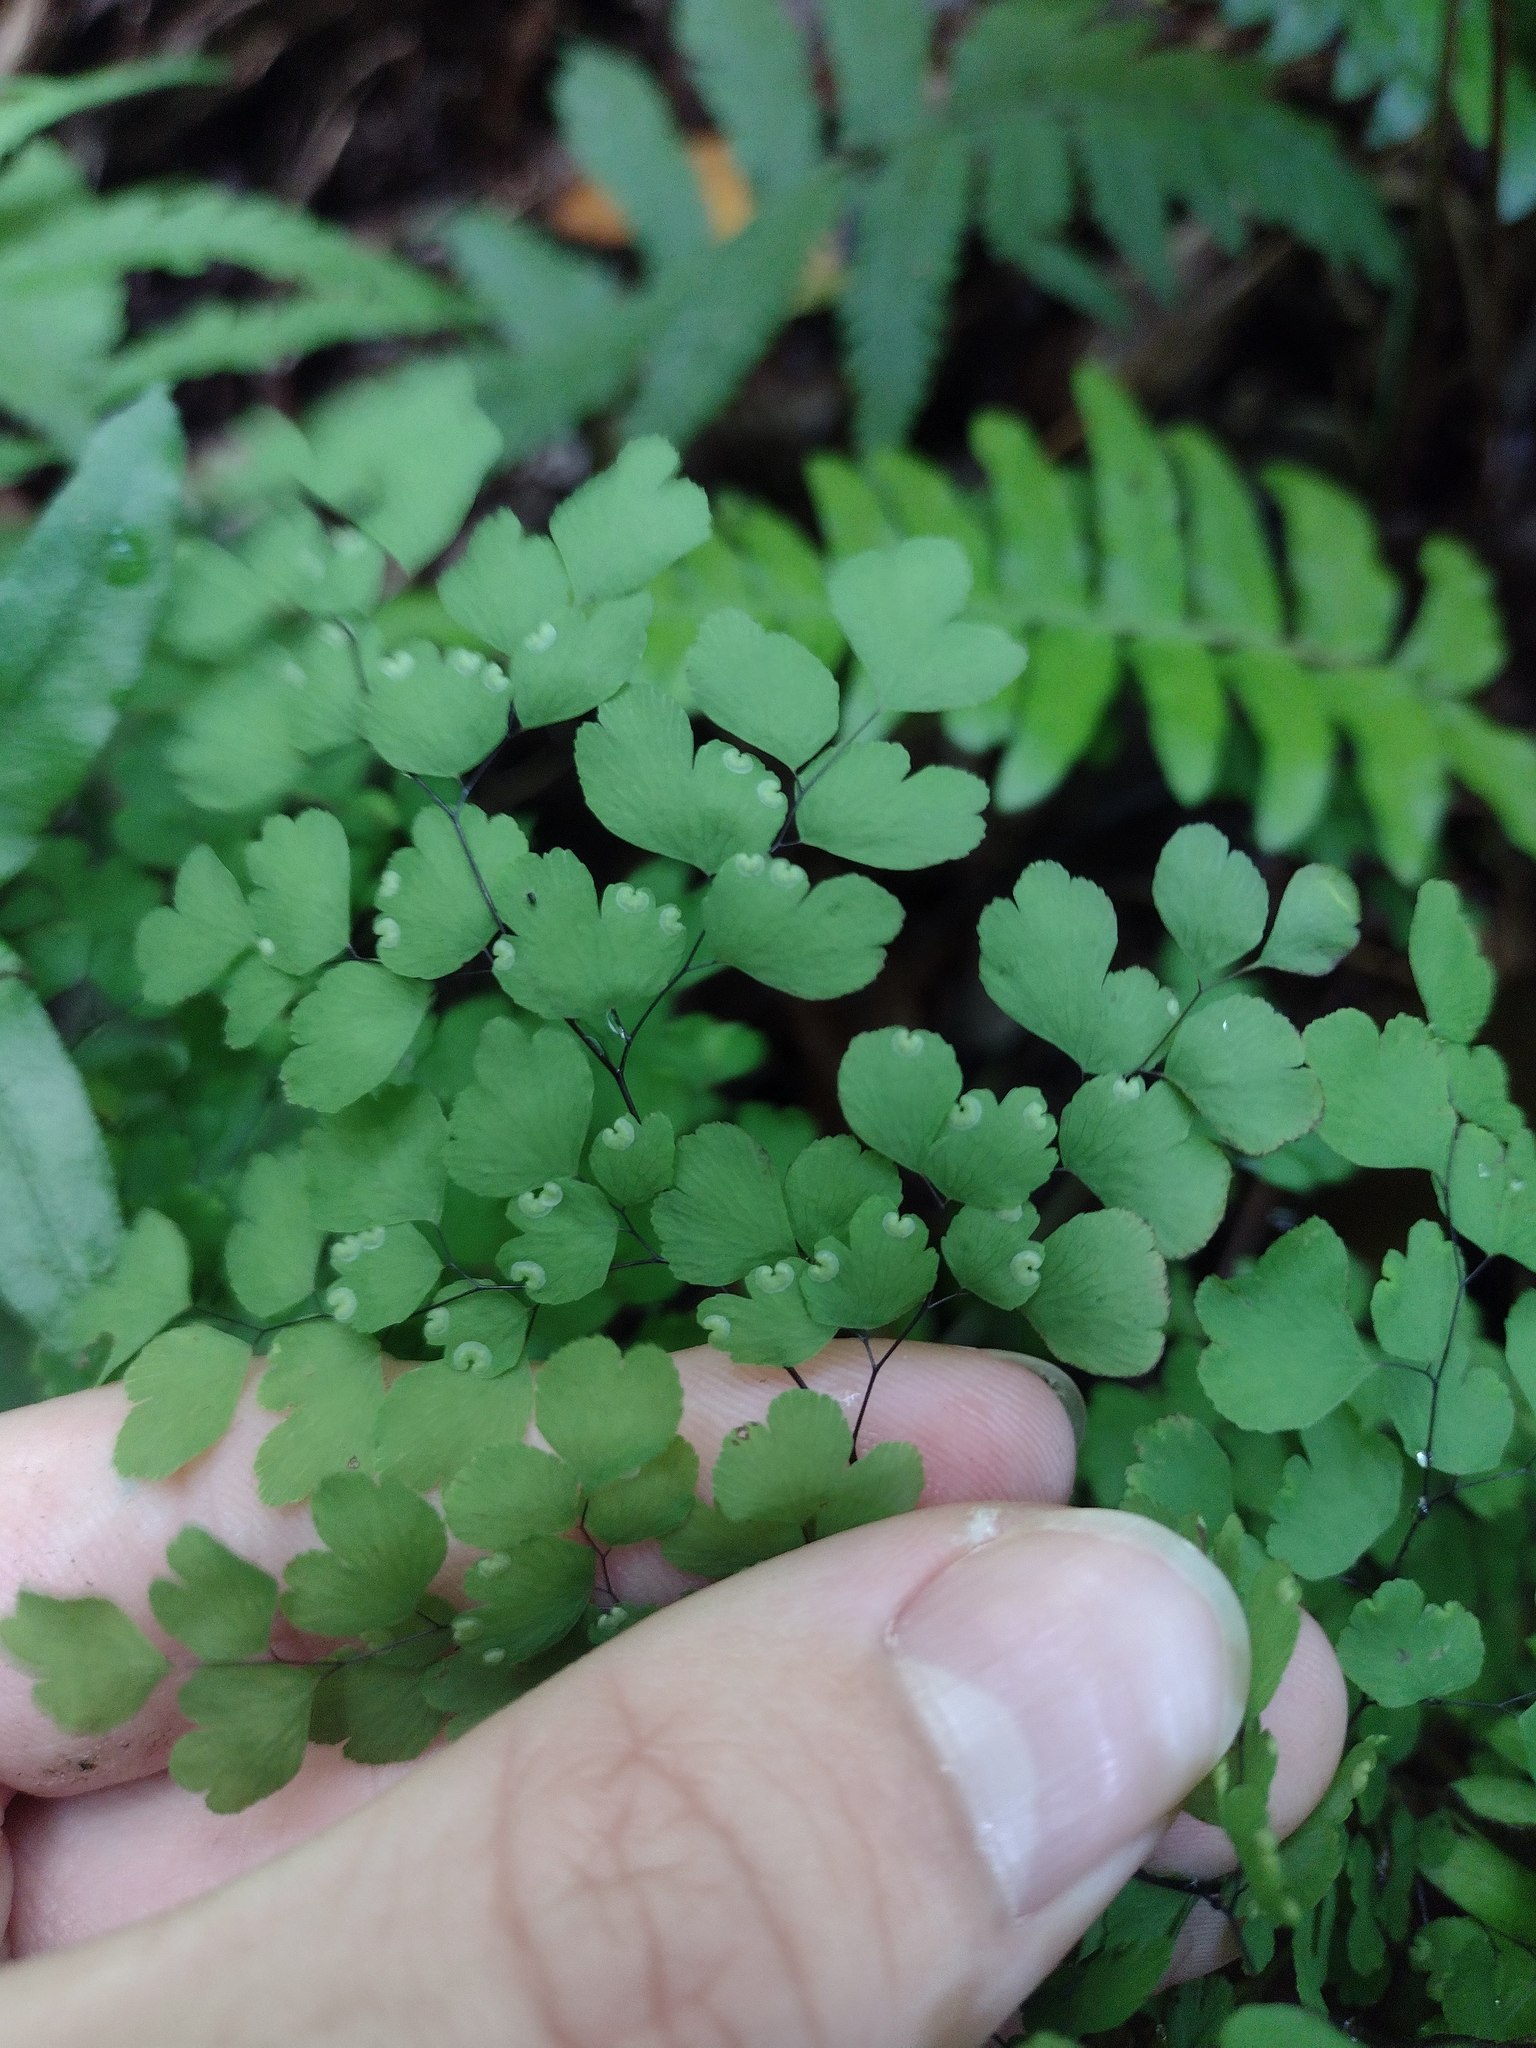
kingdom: Plantae
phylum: Tracheophyta
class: Polypodiopsida
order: Polypodiales
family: Pteridaceae
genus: Adiantum
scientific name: Adiantum raddianum
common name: Delta maidenhair fern
